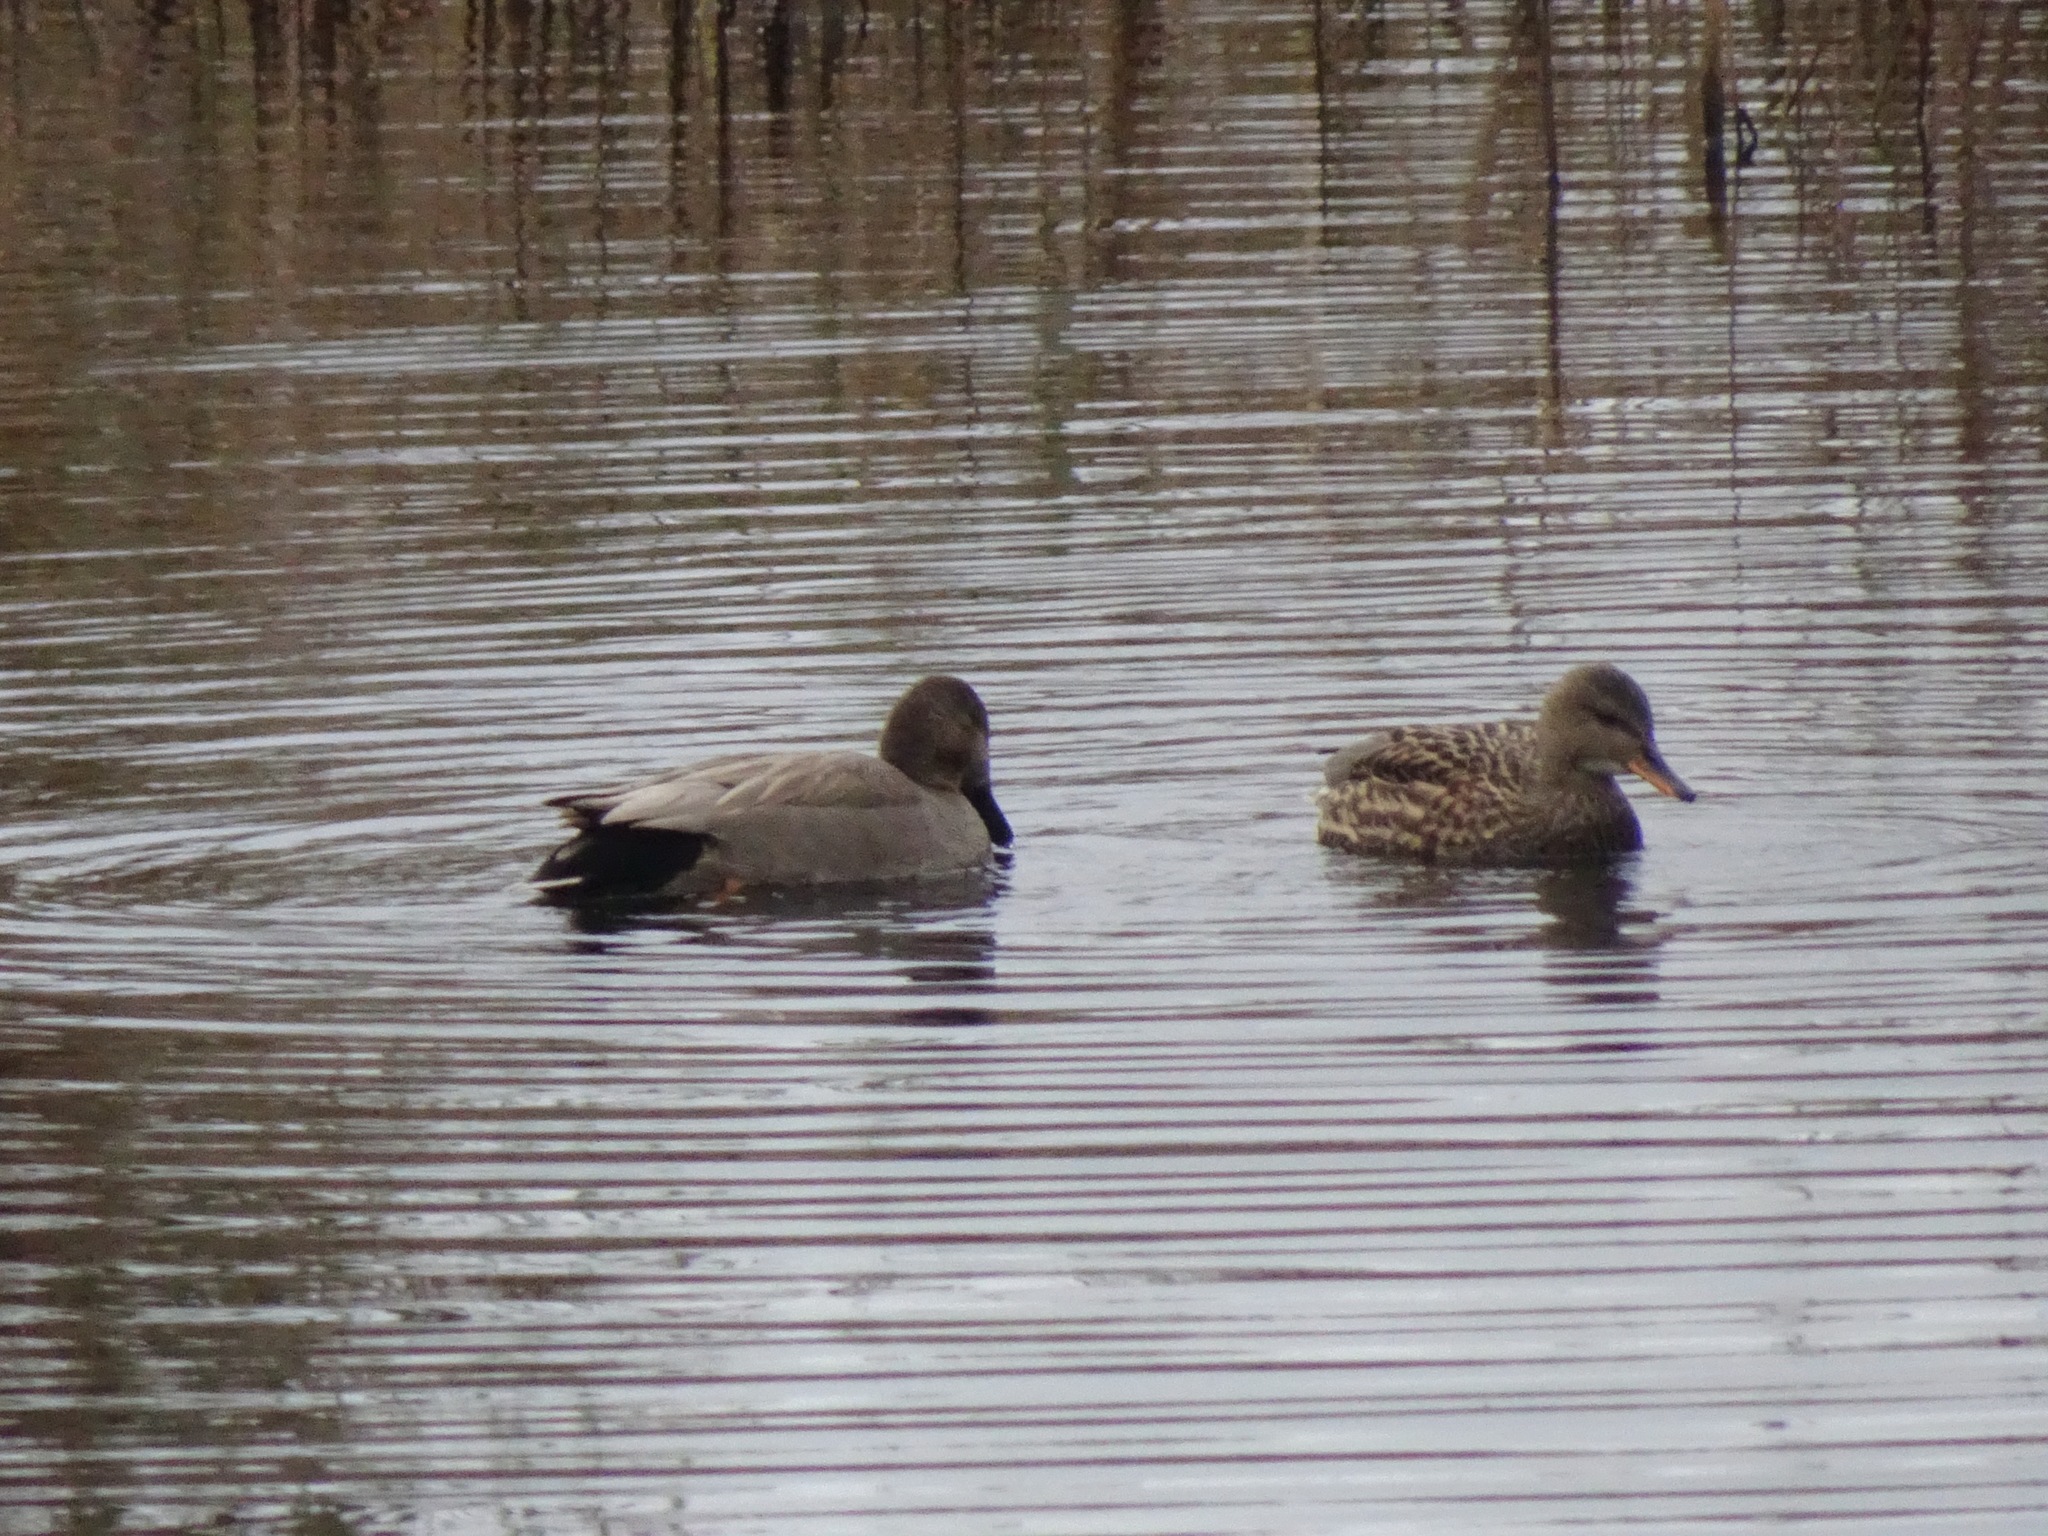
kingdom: Animalia
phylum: Chordata
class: Aves
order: Anseriformes
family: Anatidae
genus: Mareca
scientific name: Mareca strepera
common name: Gadwall
